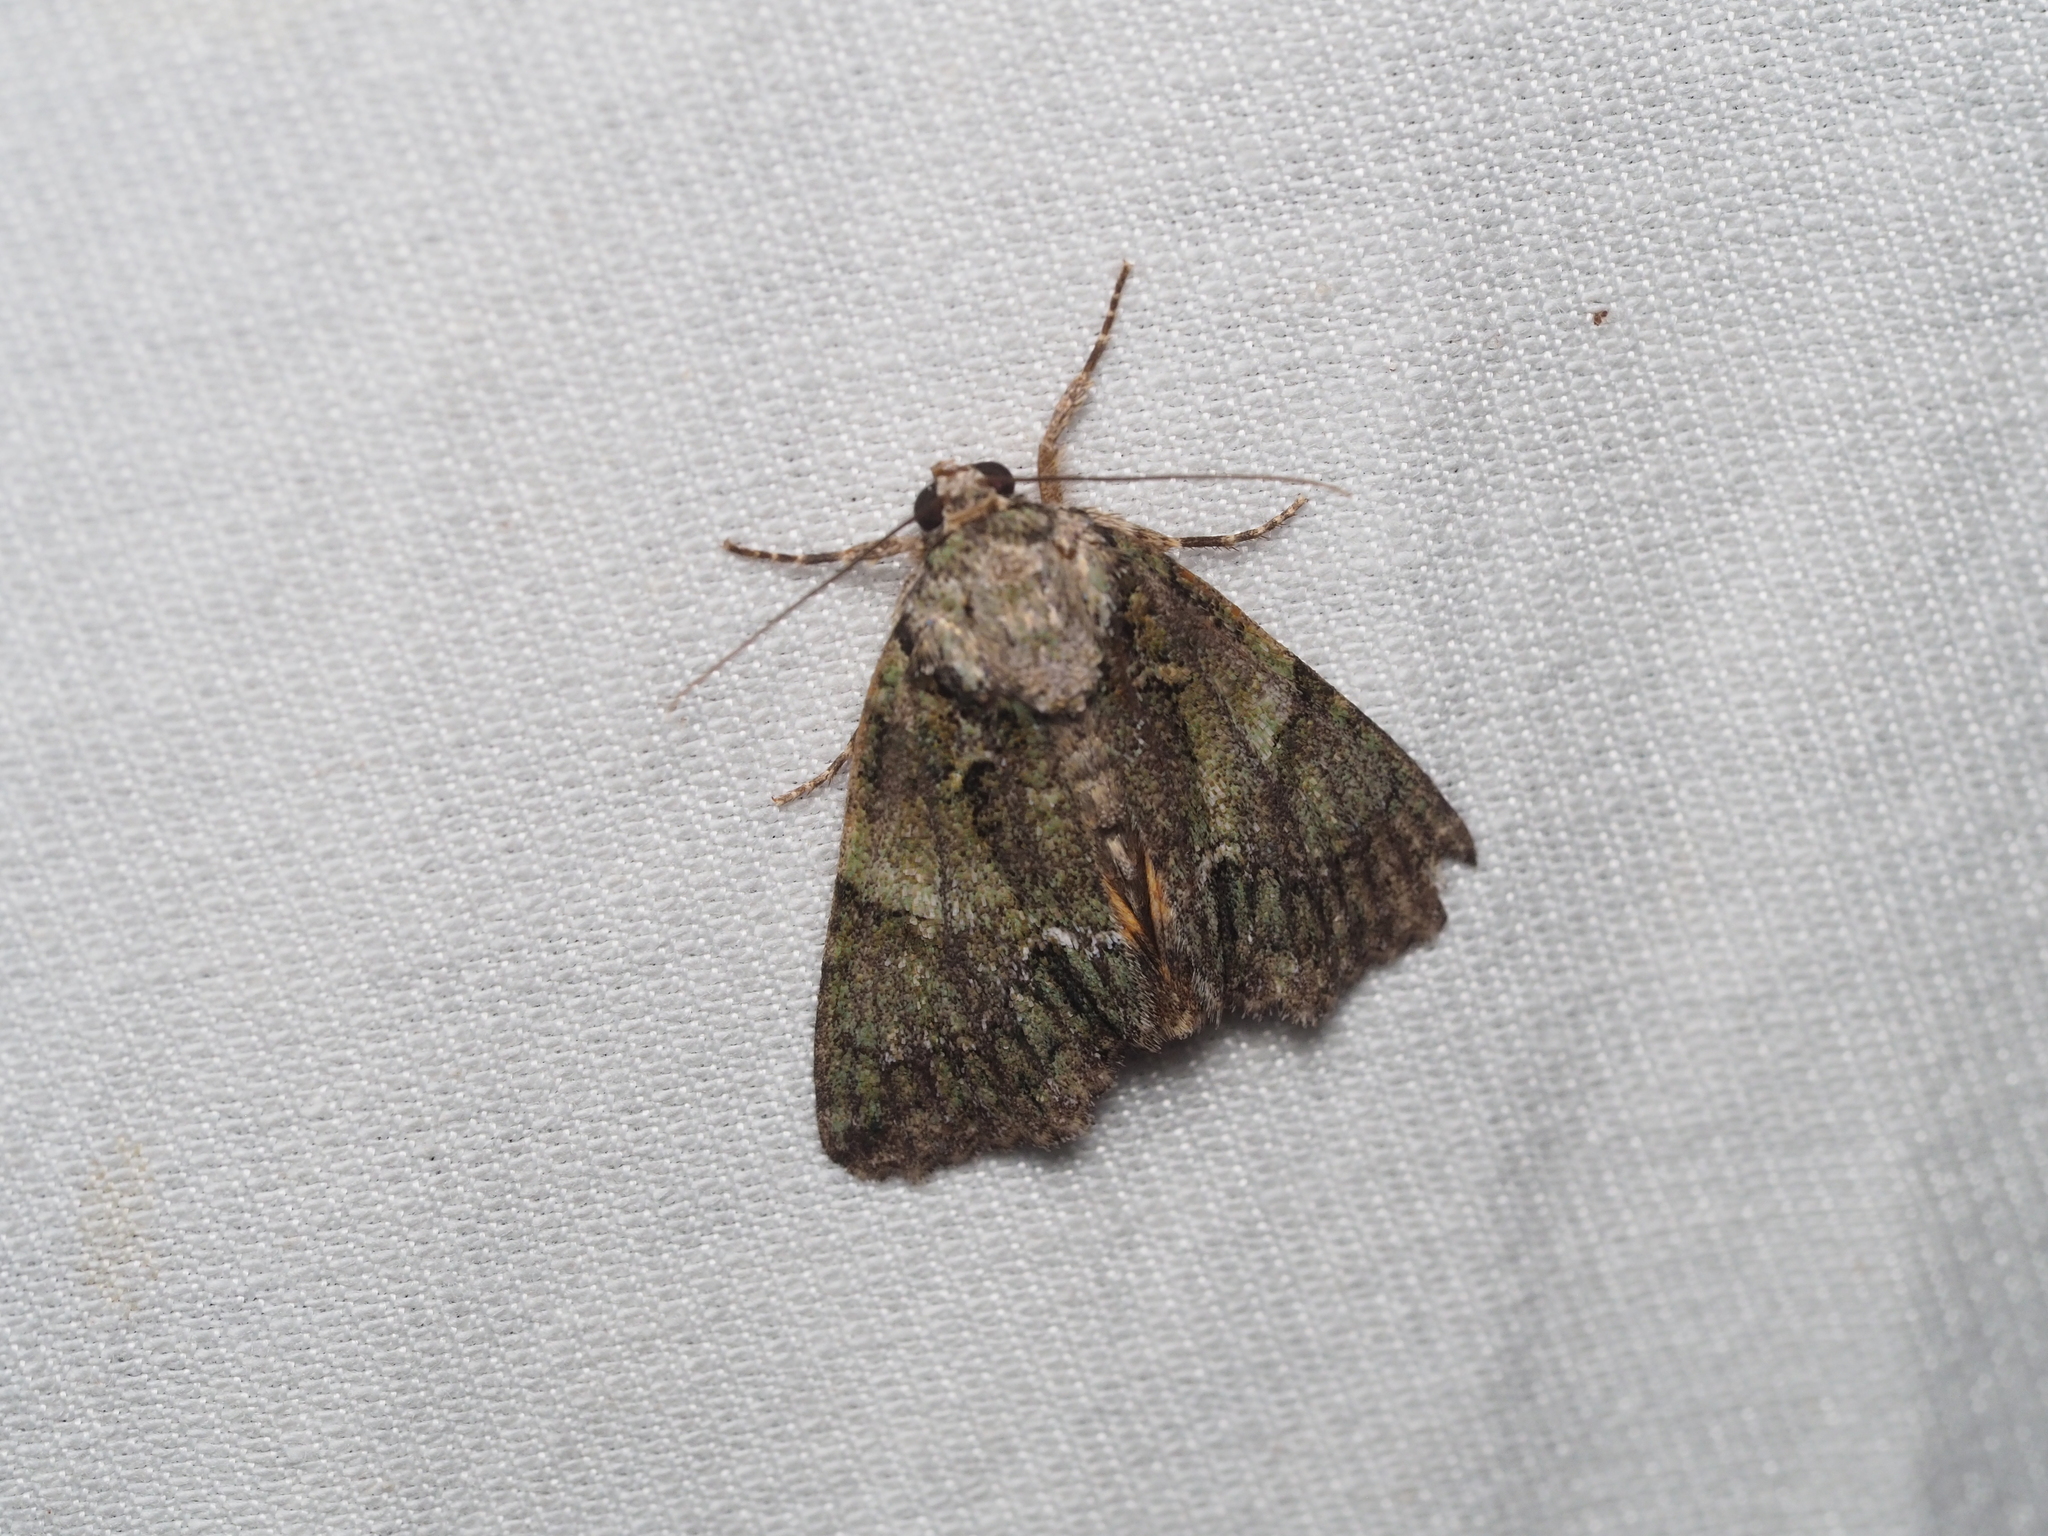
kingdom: Animalia
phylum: Arthropoda
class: Insecta
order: Lepidoptera
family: Noctuidae
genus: Polyphaenis
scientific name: Polyphaenis sericata
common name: Guernsey underwing
